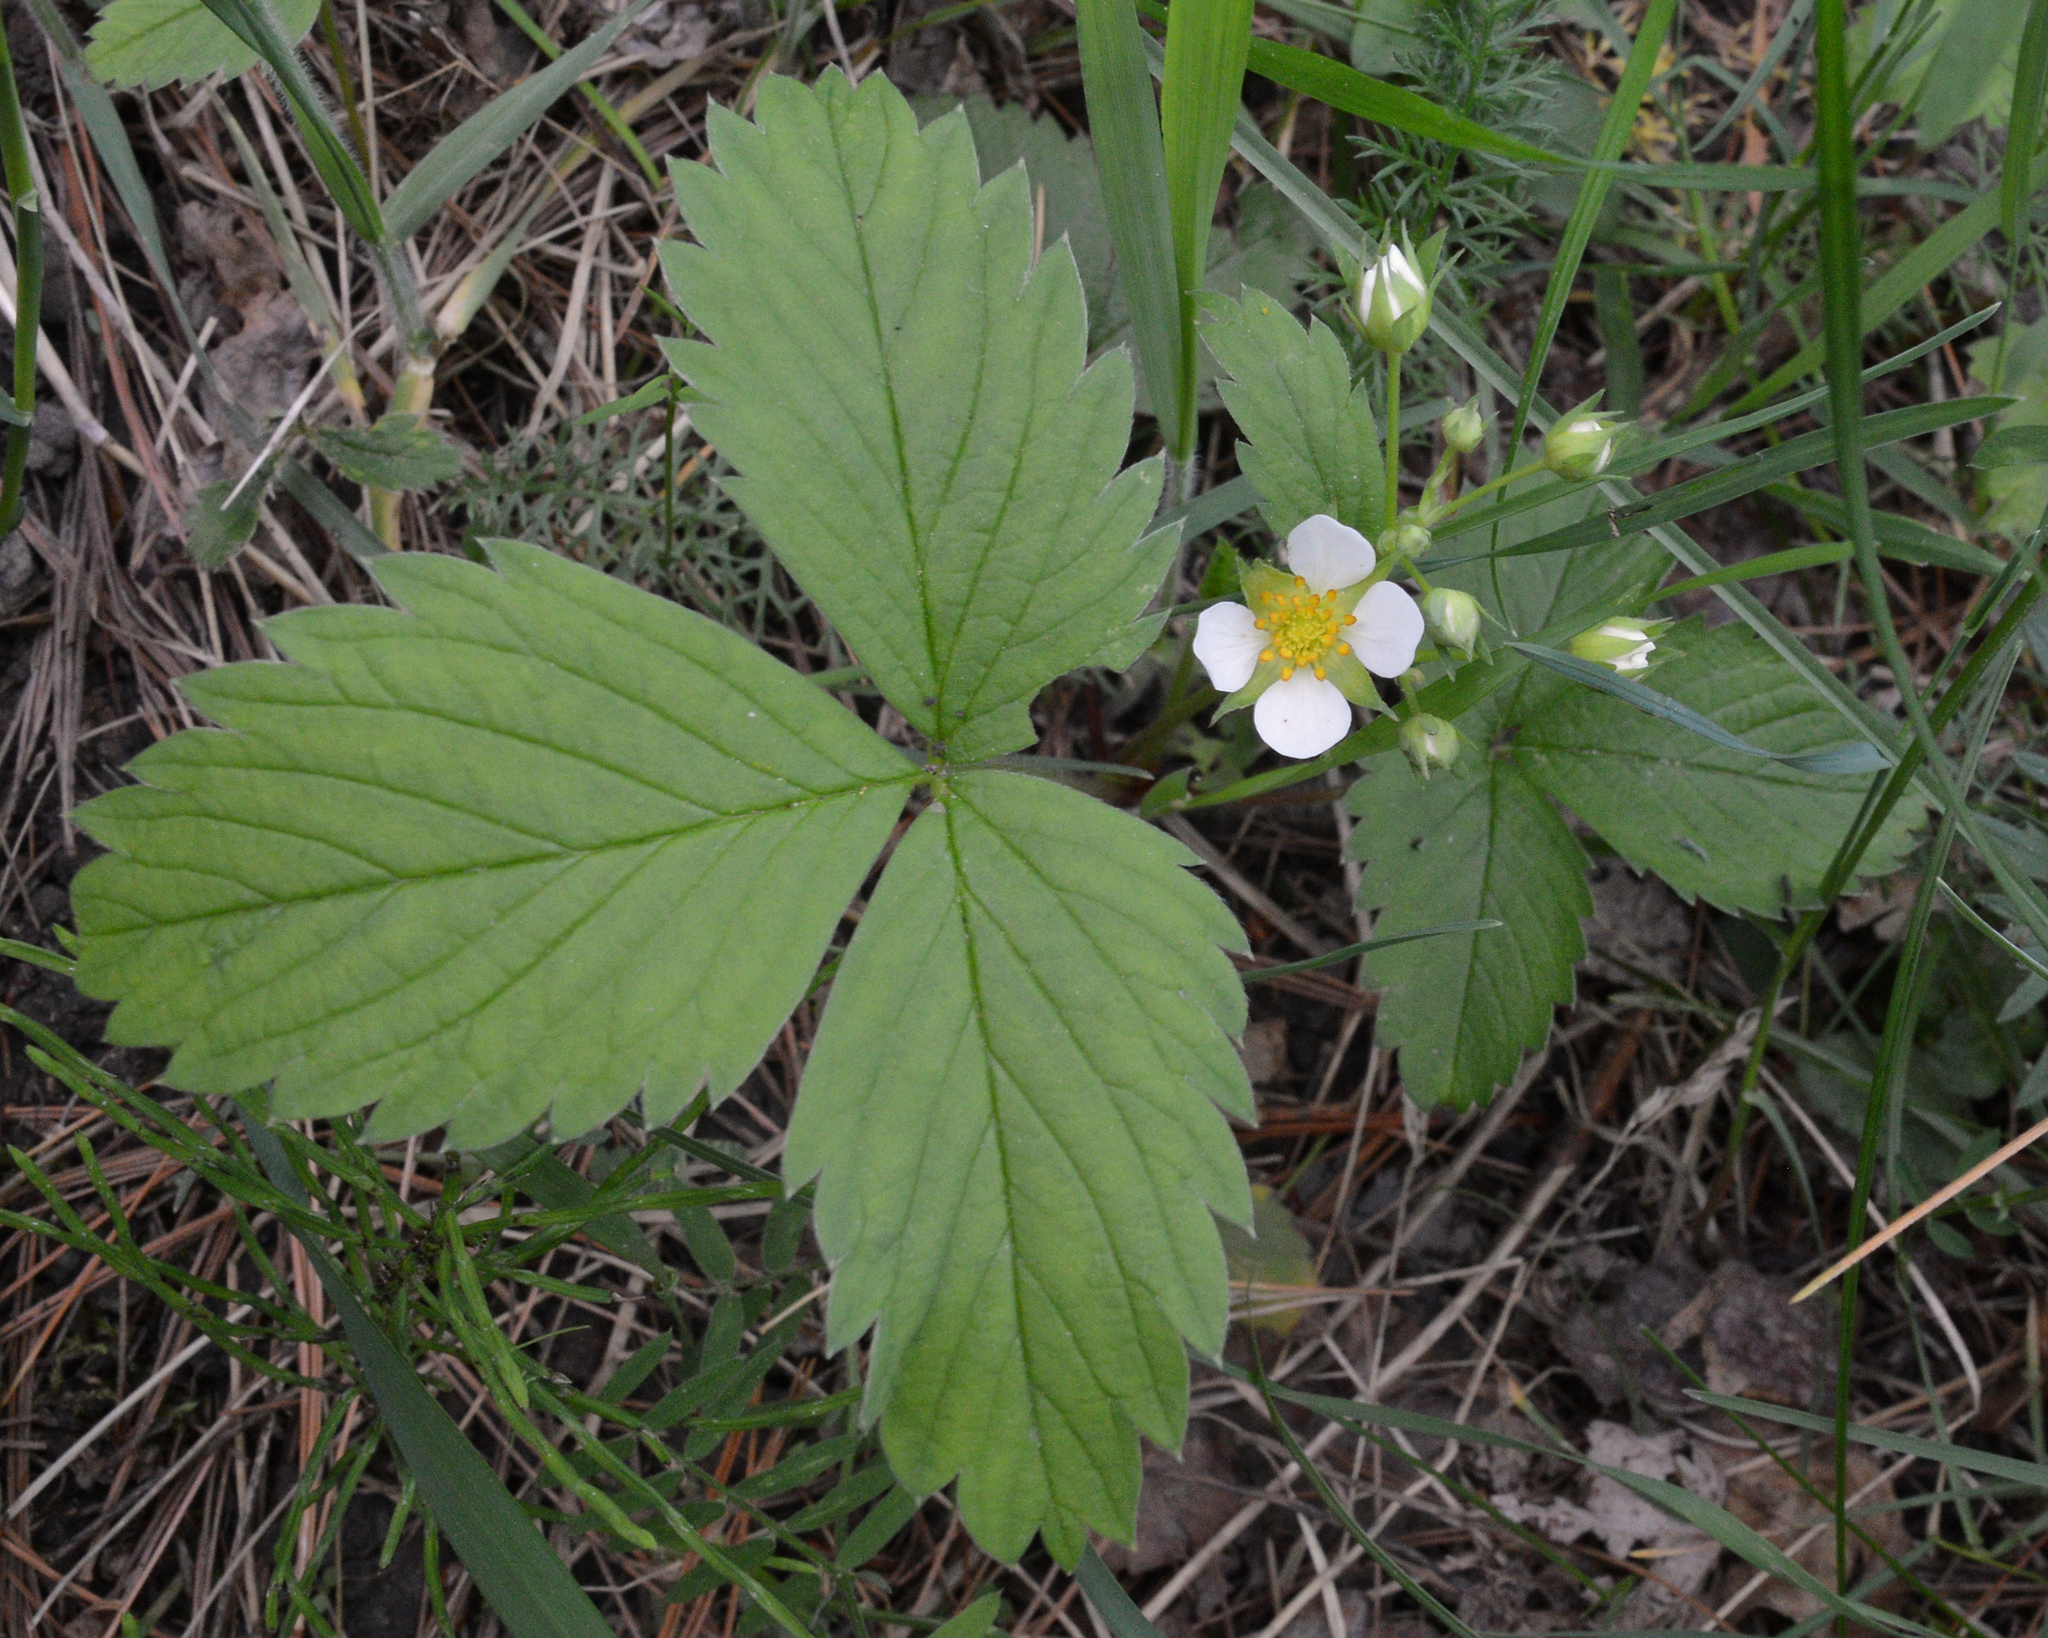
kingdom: Plantae
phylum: Tracheophyta
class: Magnoliopsida
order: Rosales
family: Rosaceae
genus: Fragaria
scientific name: Fragaria virginiana
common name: Thickleaved wild strawberry
